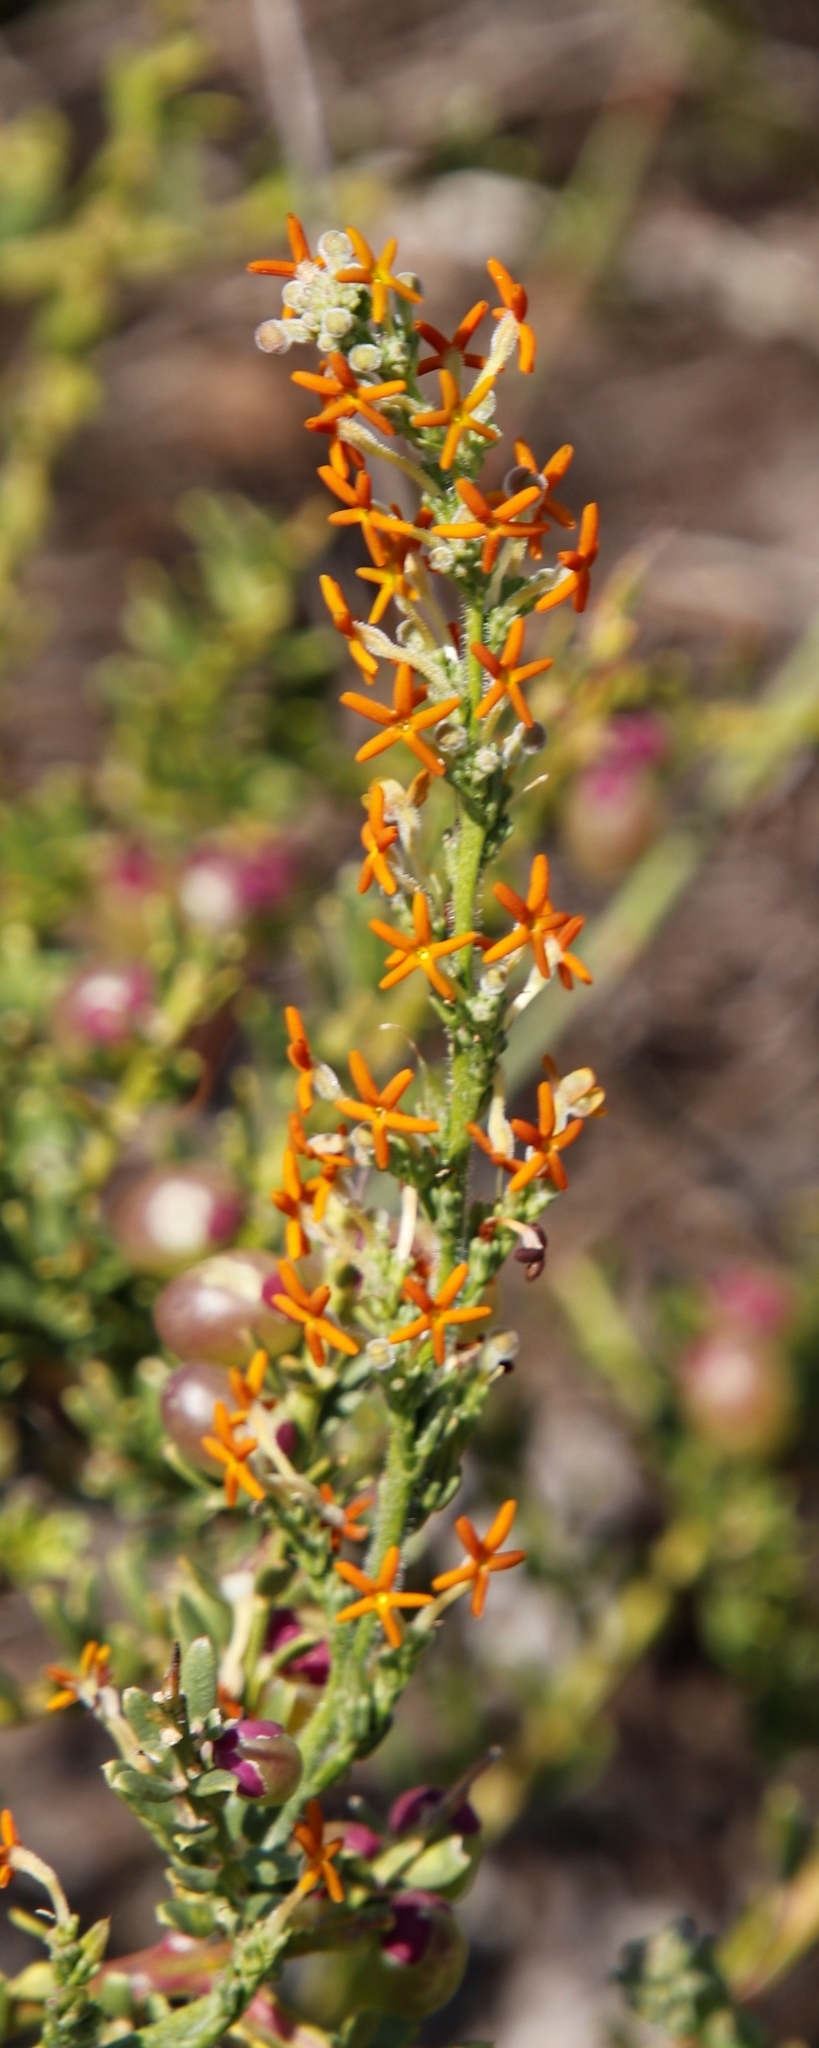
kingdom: Plantae
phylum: Tracheophyta
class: Magnoliopsida
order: Lamiales
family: Scrophulariaceae
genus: Manulea
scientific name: Manulea rubra
